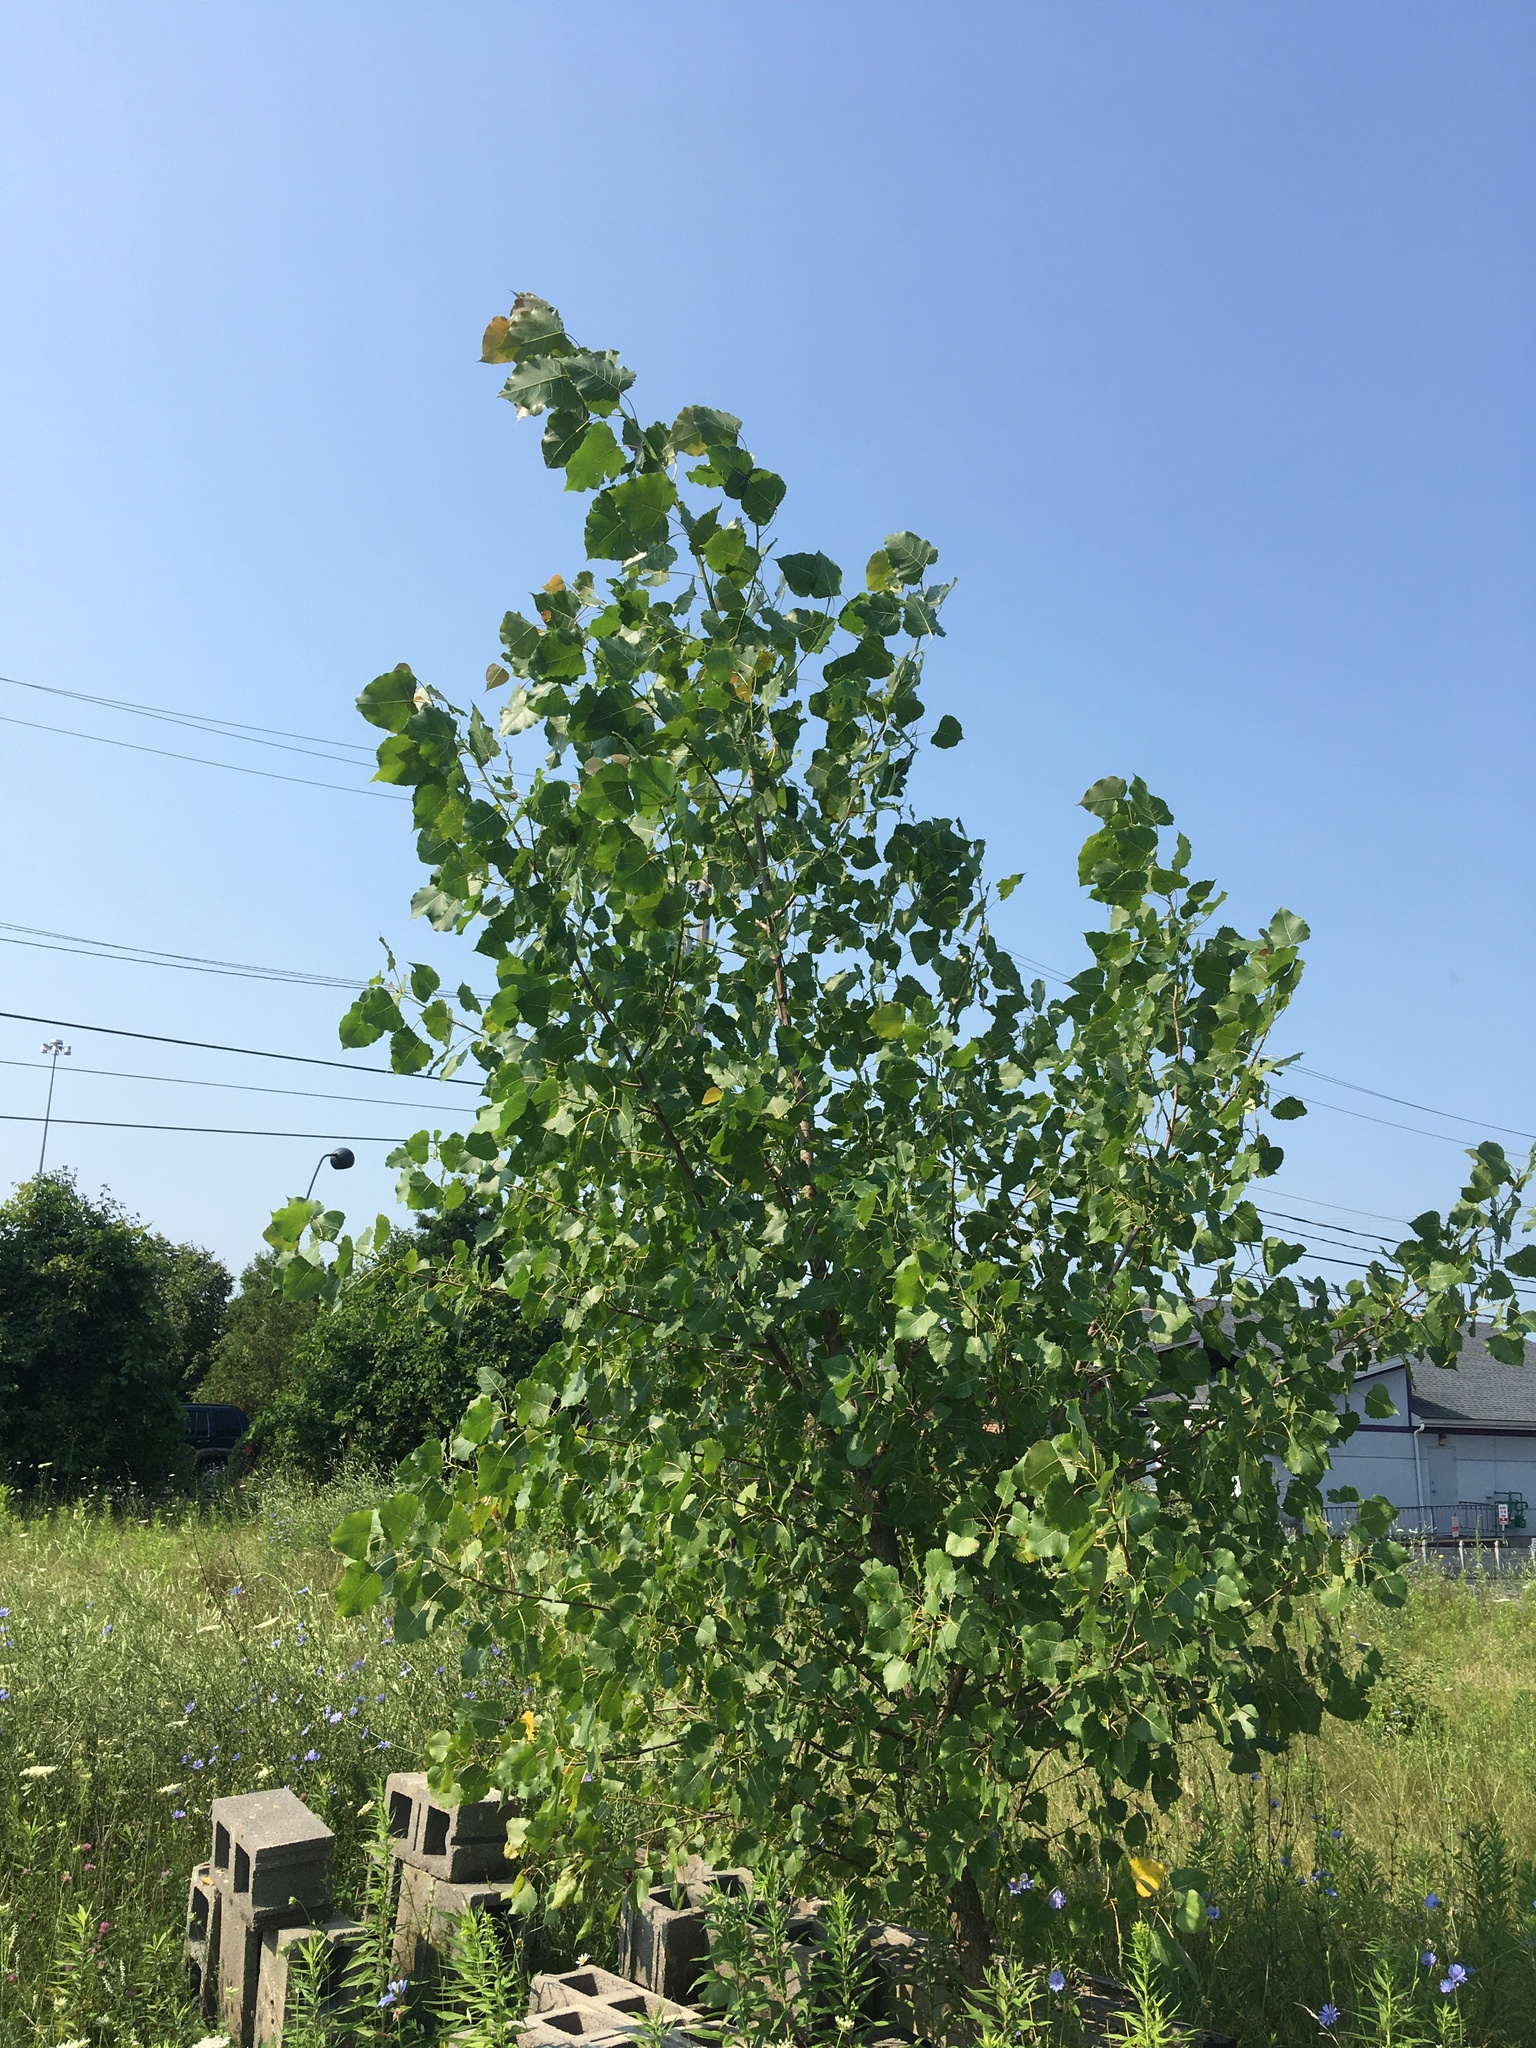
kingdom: Plantae
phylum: Tracheophyta
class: Magnoliopsida
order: Malpighiales
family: Salicaceae
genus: Populus
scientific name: Populus deltoides
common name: Eastern cottonwood
